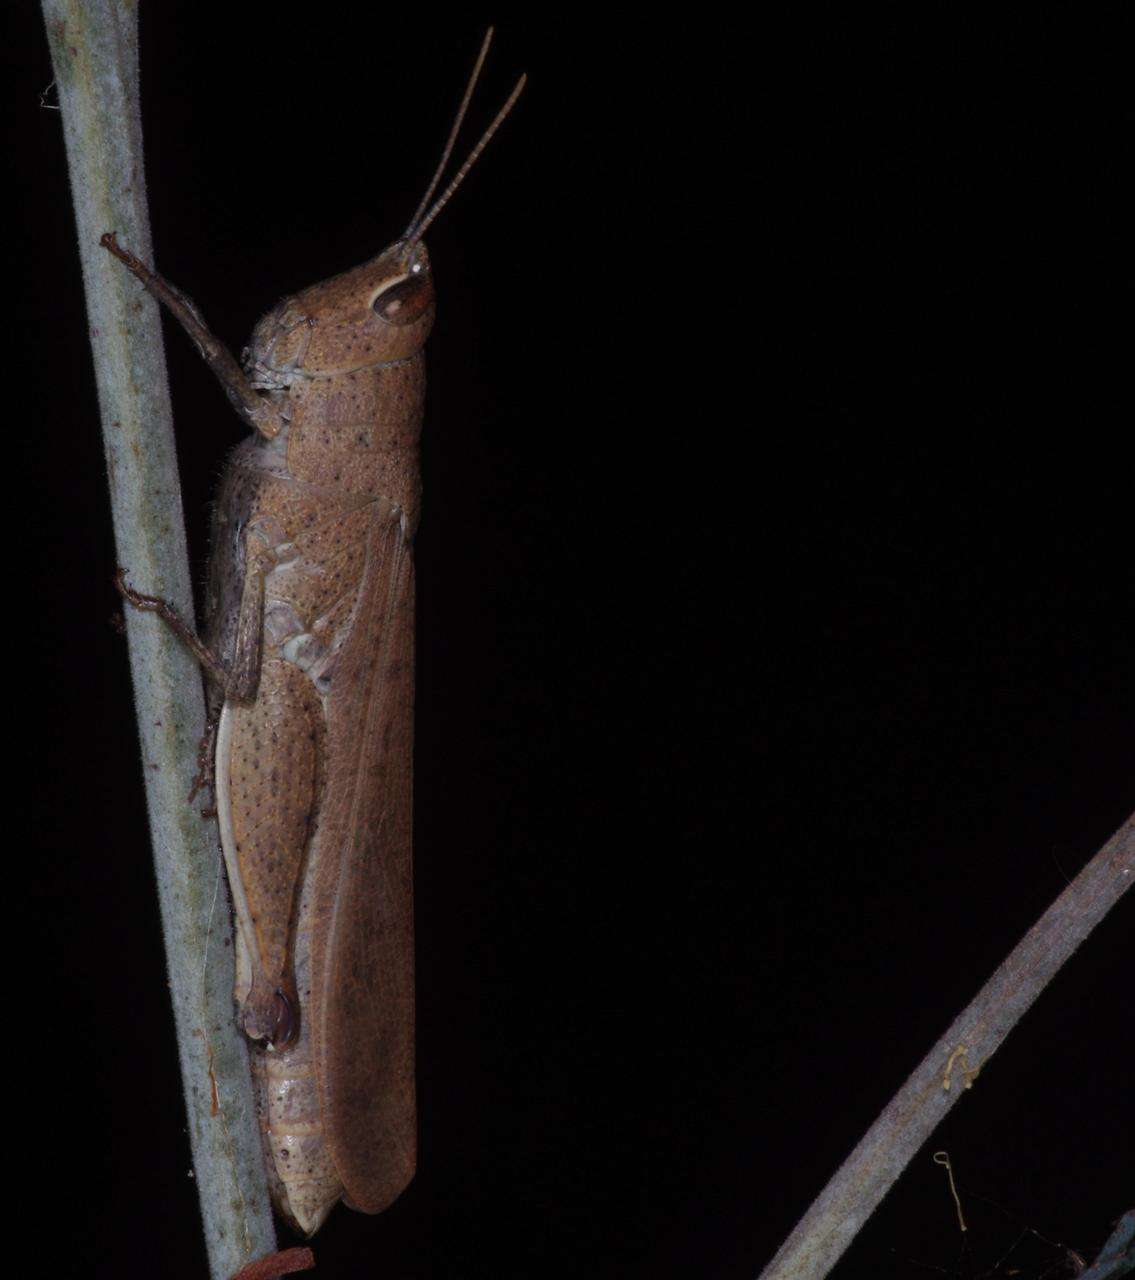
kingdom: Animalia
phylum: Arthropoda
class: Insecta
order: Orthoptera
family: Acrididae
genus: Goniaea
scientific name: Goniaea opomaloides
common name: Mimetic gumleaf grasshopper
